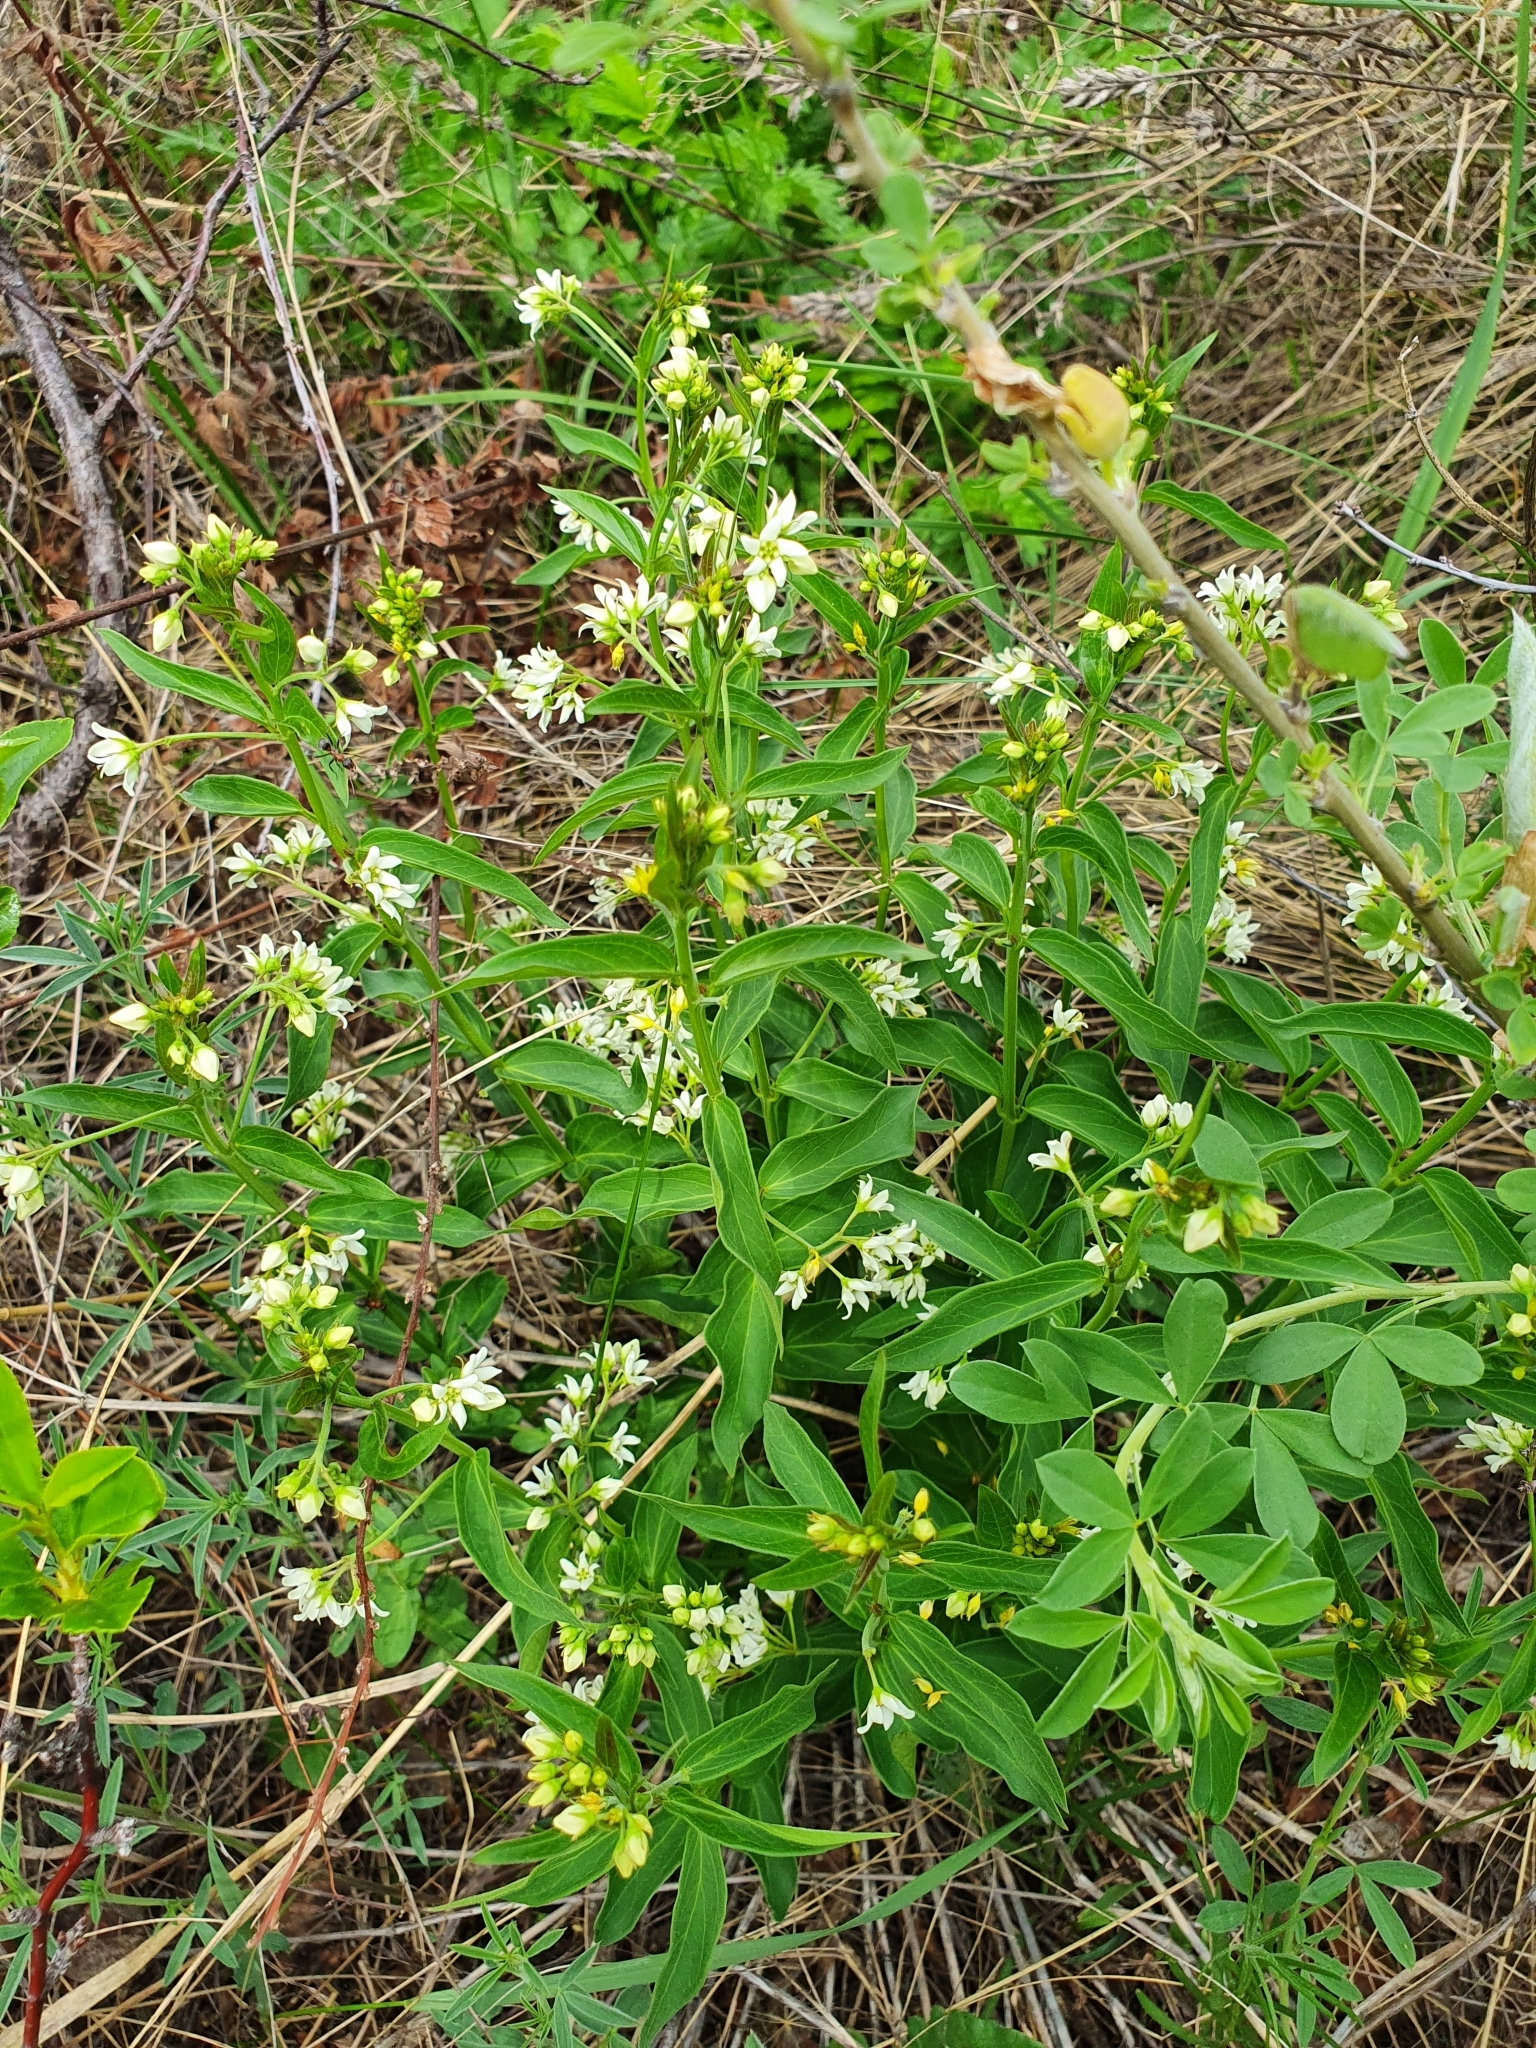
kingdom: Plantae
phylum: Tracheophyta
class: Magnoliopsida
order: Gentianales
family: Apocynaceae
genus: Vincetoxicum
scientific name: Vincetoxicum hirundinaria
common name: White swallowwort
